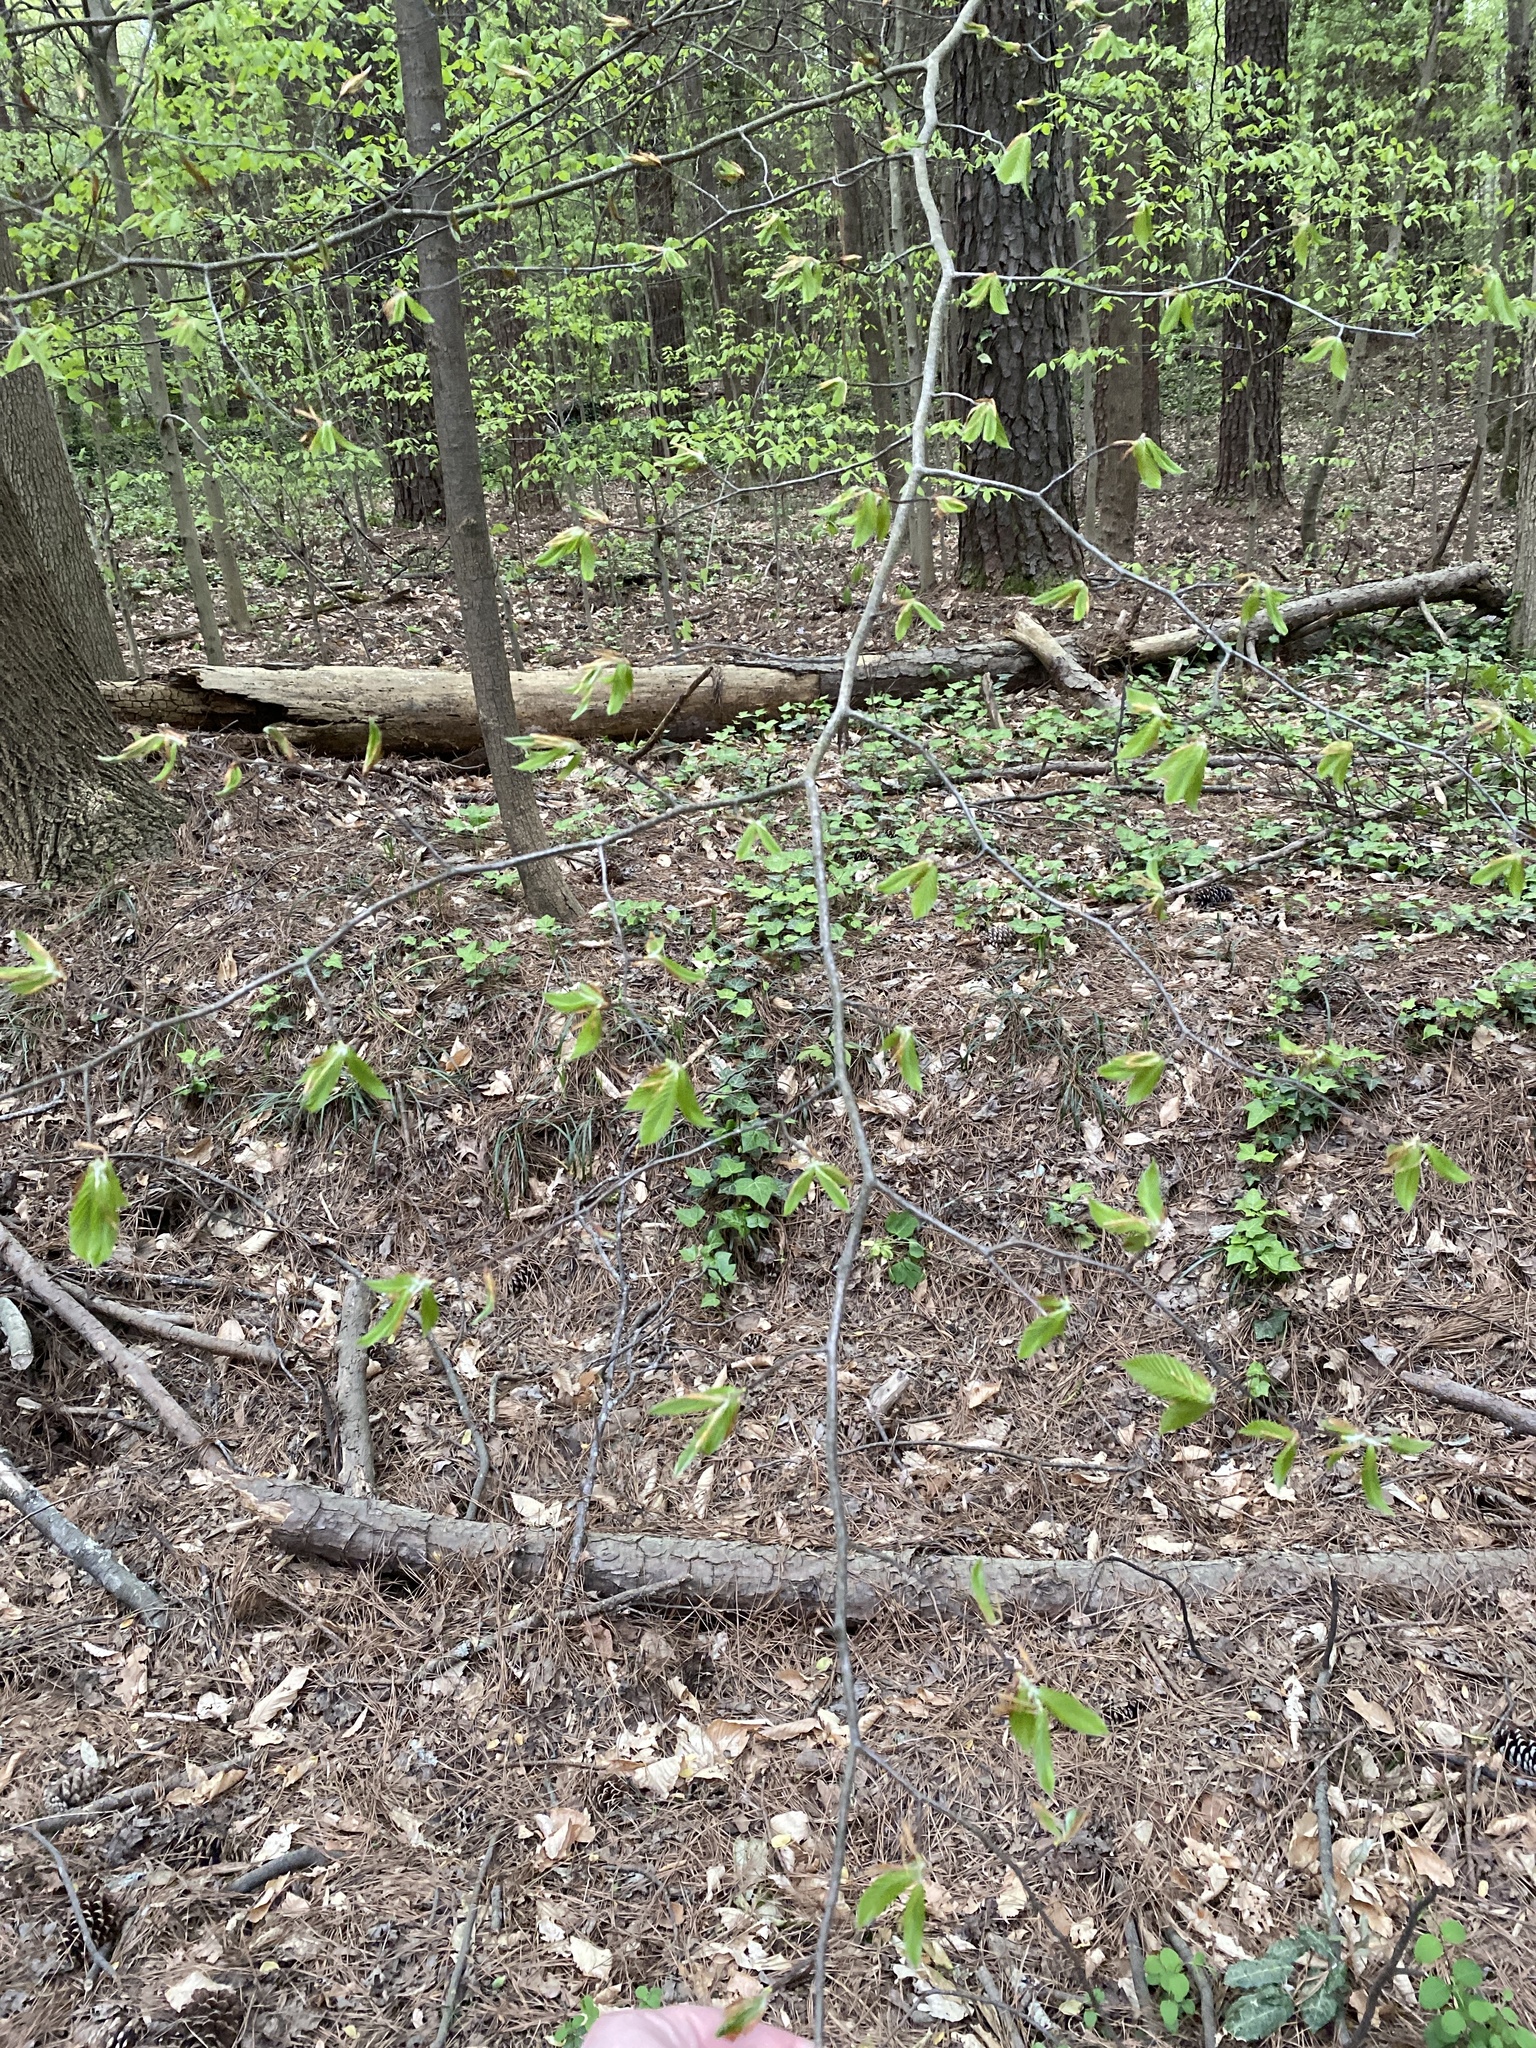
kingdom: Plantae
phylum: Tracheophyta
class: Magnoliopsida
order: Fagales
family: Fagaceae
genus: Fagus
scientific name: Fagus grandifolia
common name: American beech
